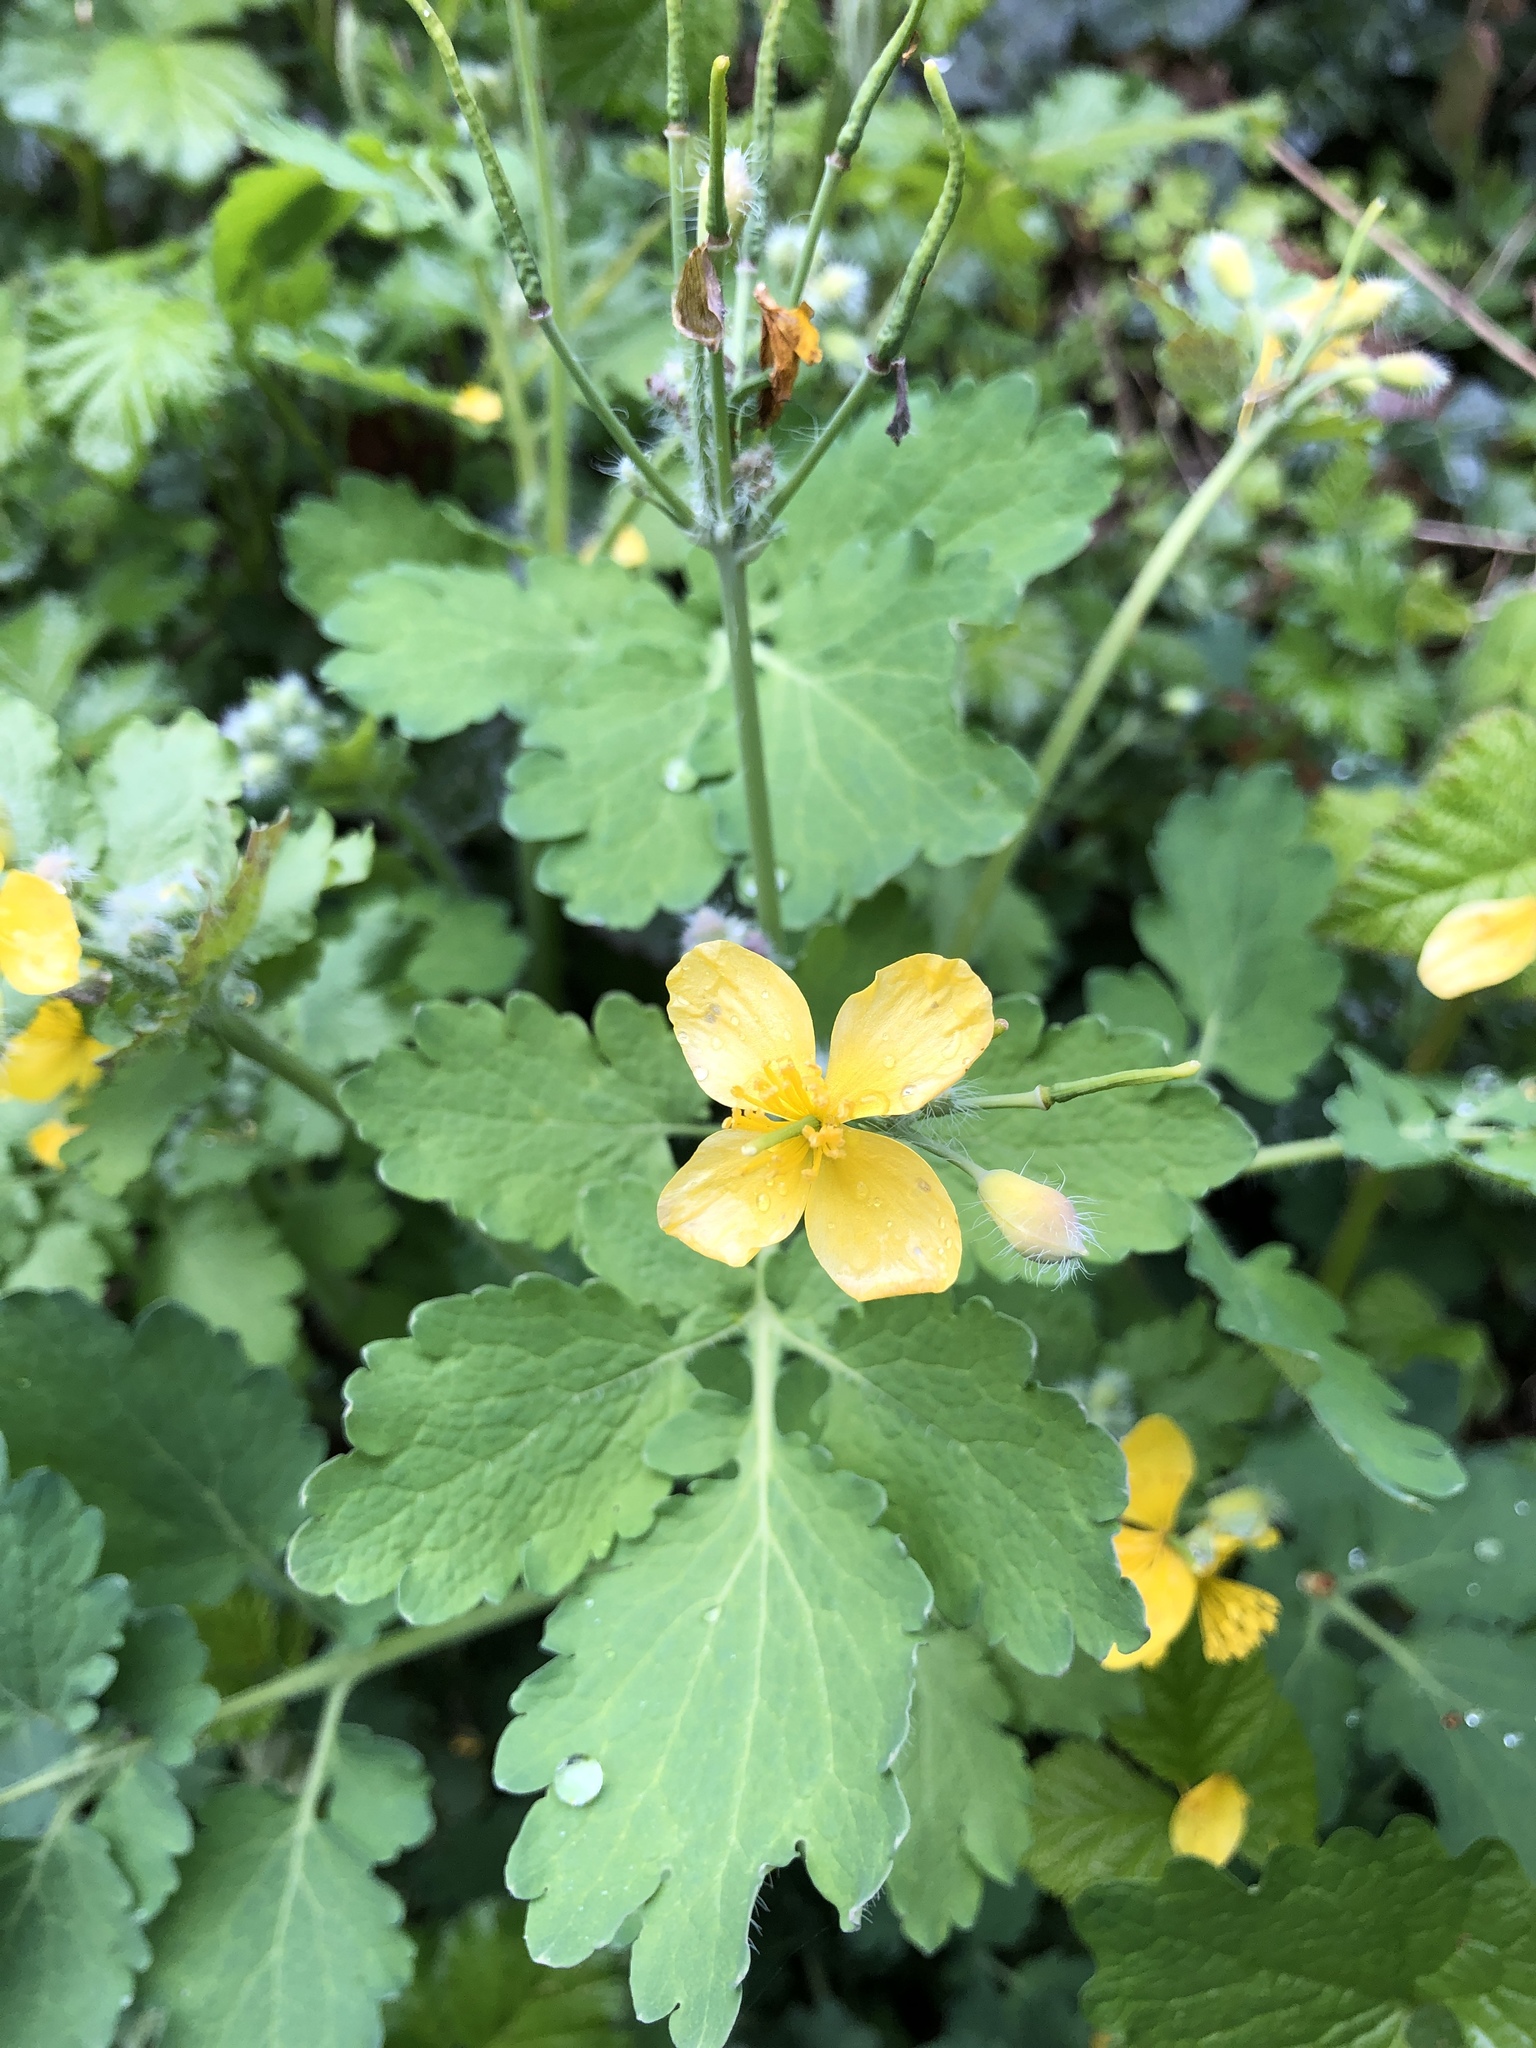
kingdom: Plantae
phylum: Tracheophyta
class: Magnoliopsida
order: Ranunculales
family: Papaveraceae
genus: Chelidonium
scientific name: Chelidonium majus
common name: Greater celandine
